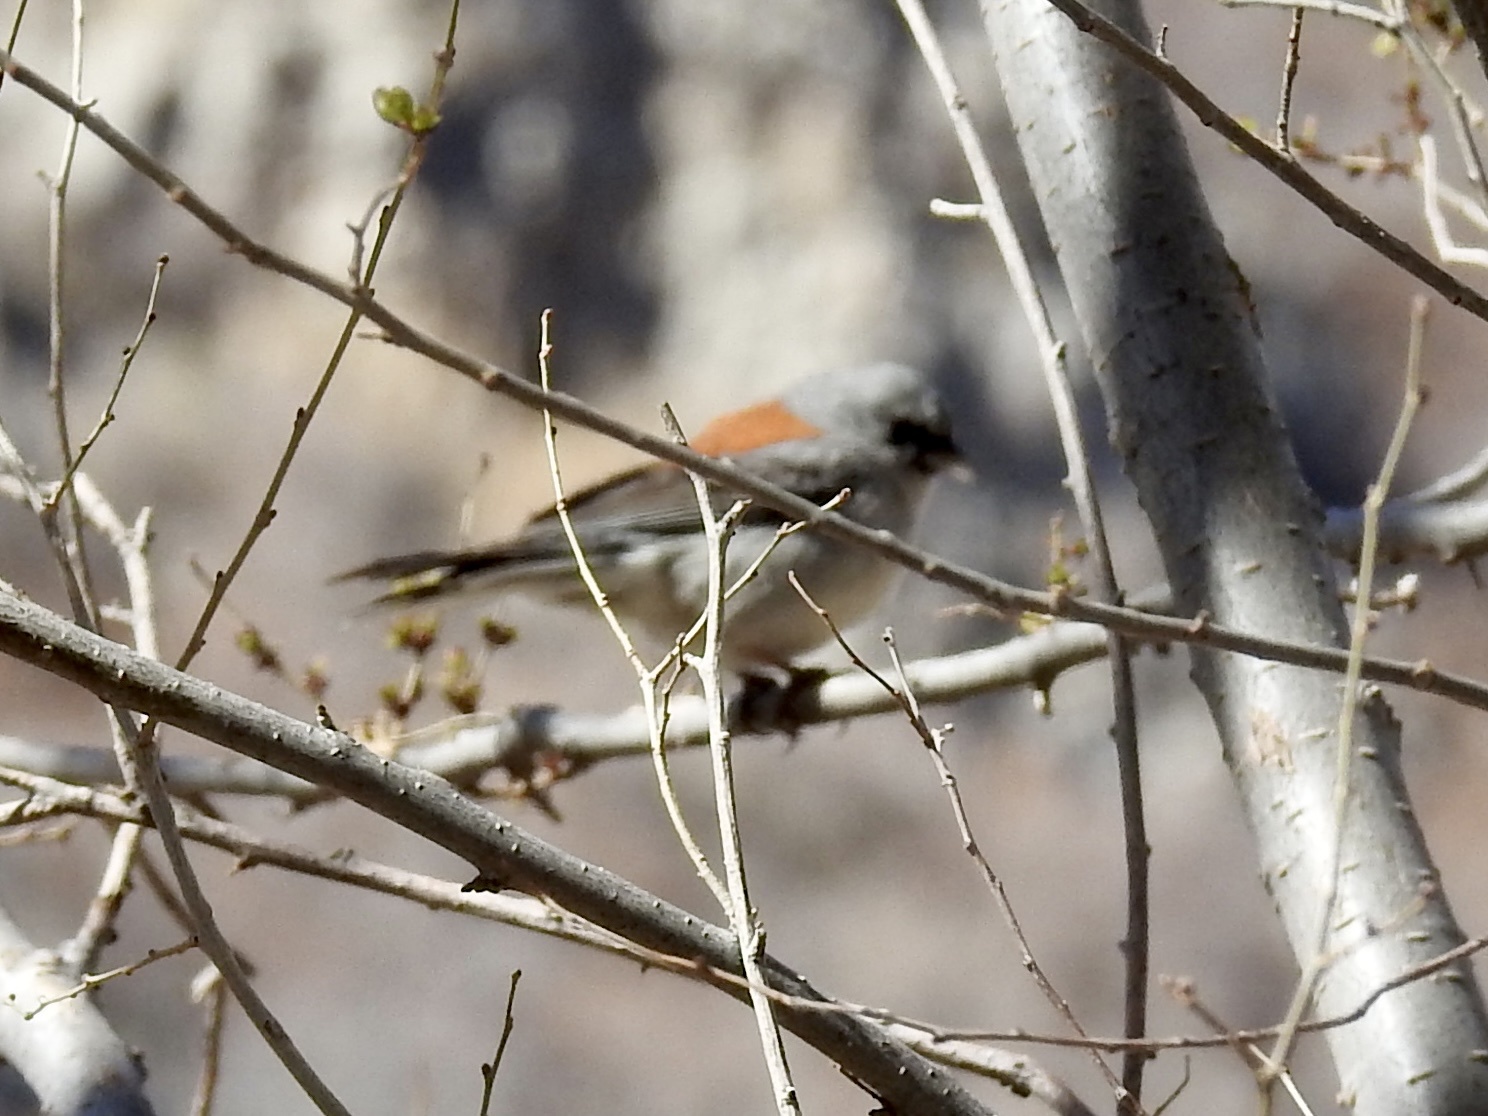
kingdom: Animalia
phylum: Chordata
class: Aves
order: Passeriformes
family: Passerellidae
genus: Junco
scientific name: Junco hyemalis
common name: Dark-eyed junco
